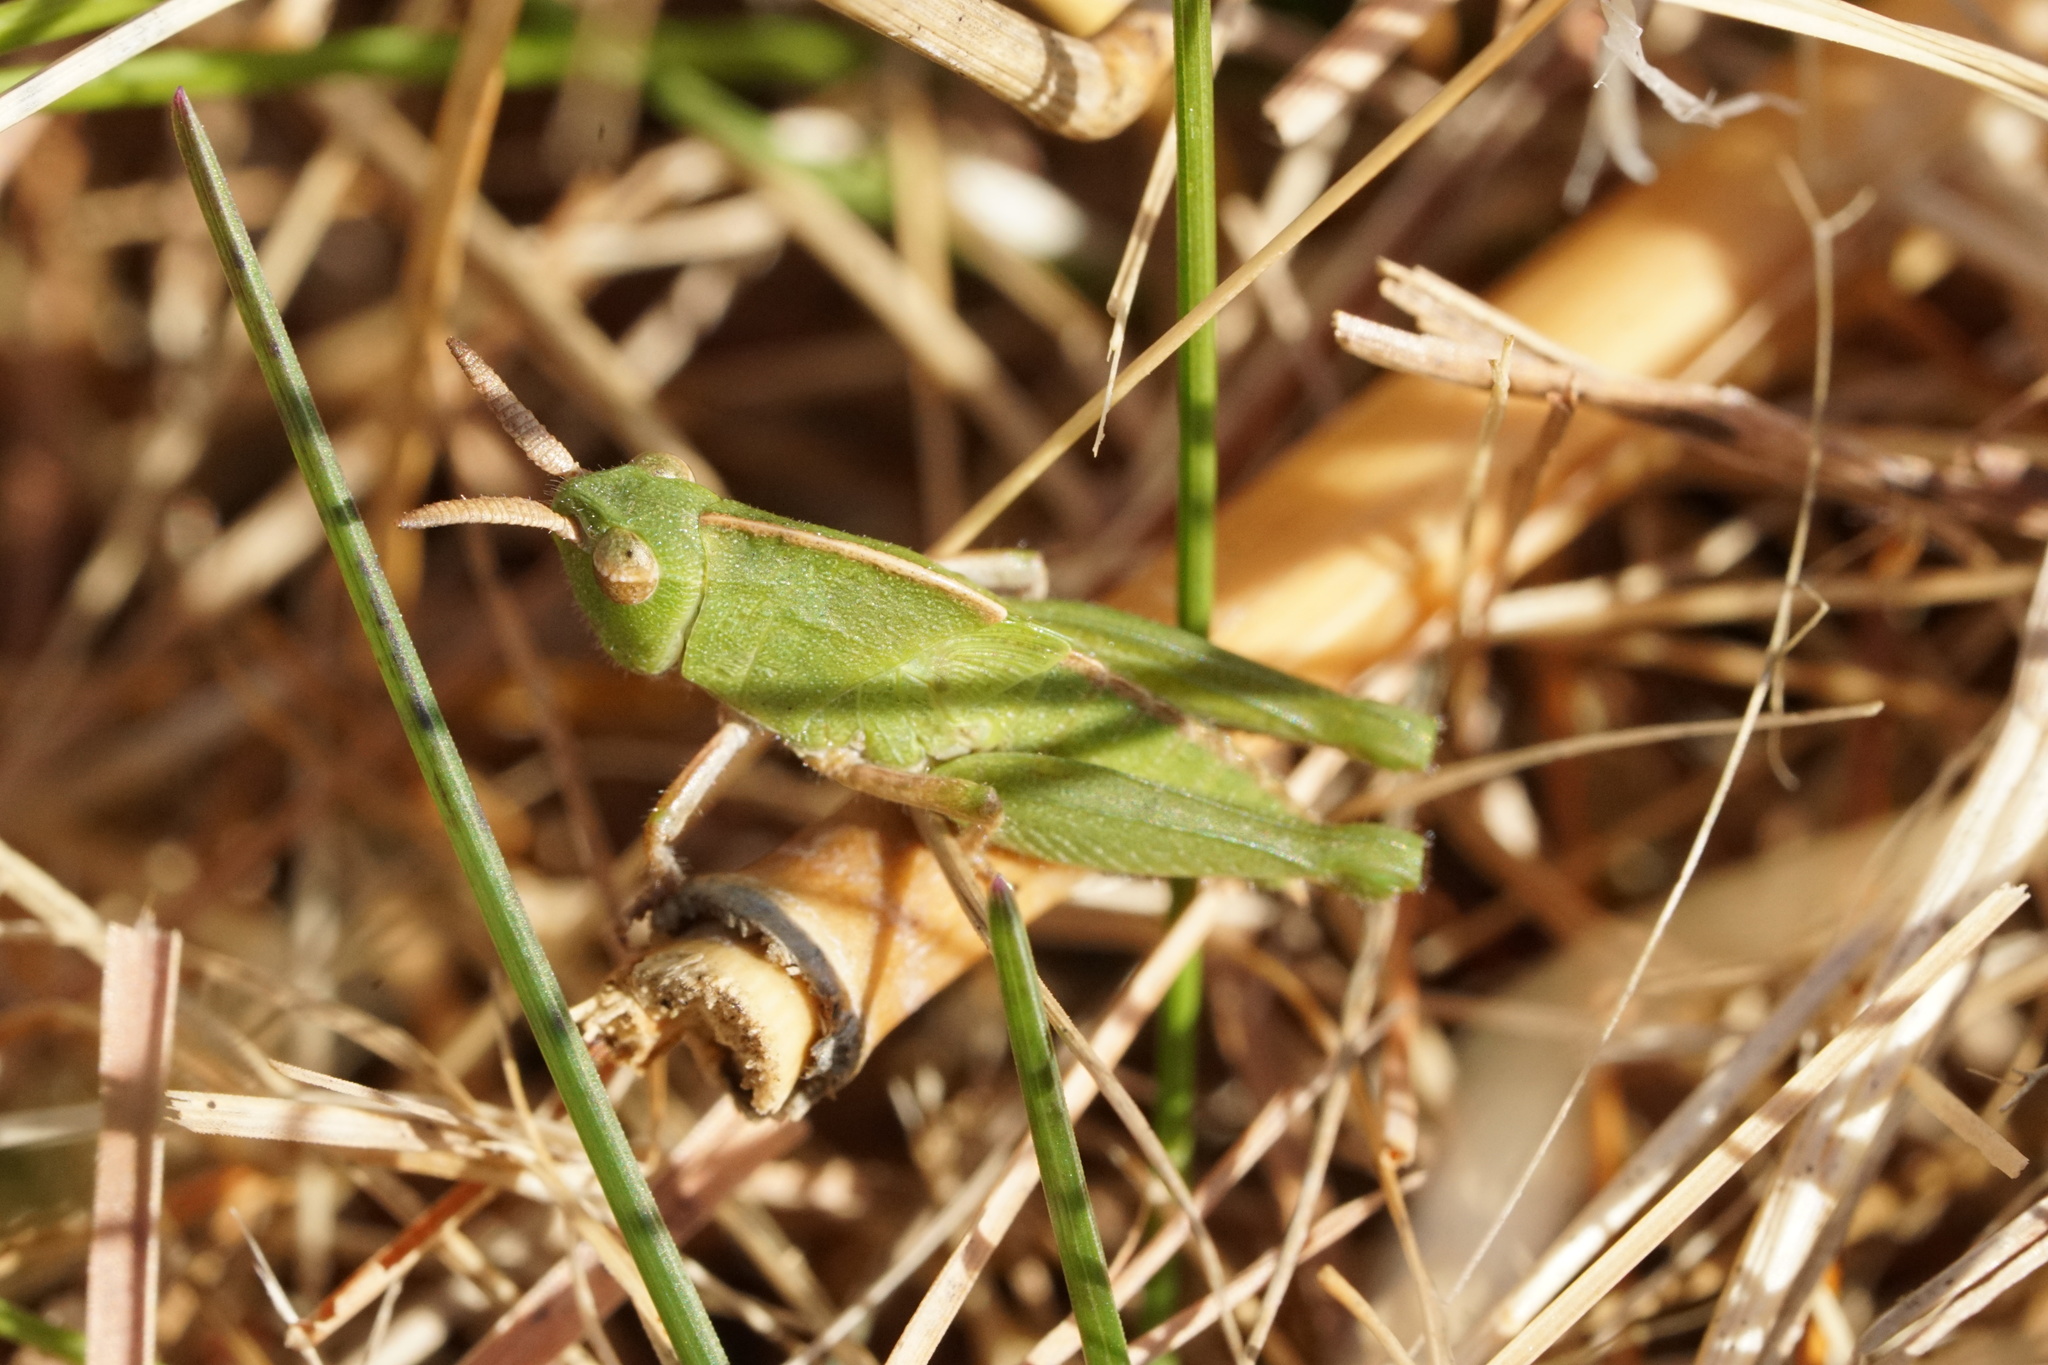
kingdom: Animalia
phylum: Arthropoda
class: Insecta
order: Orthoptera
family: Acrididae
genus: Chortophaga
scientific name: Chortophaga viridifasciata
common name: Green-striped grasshopper
